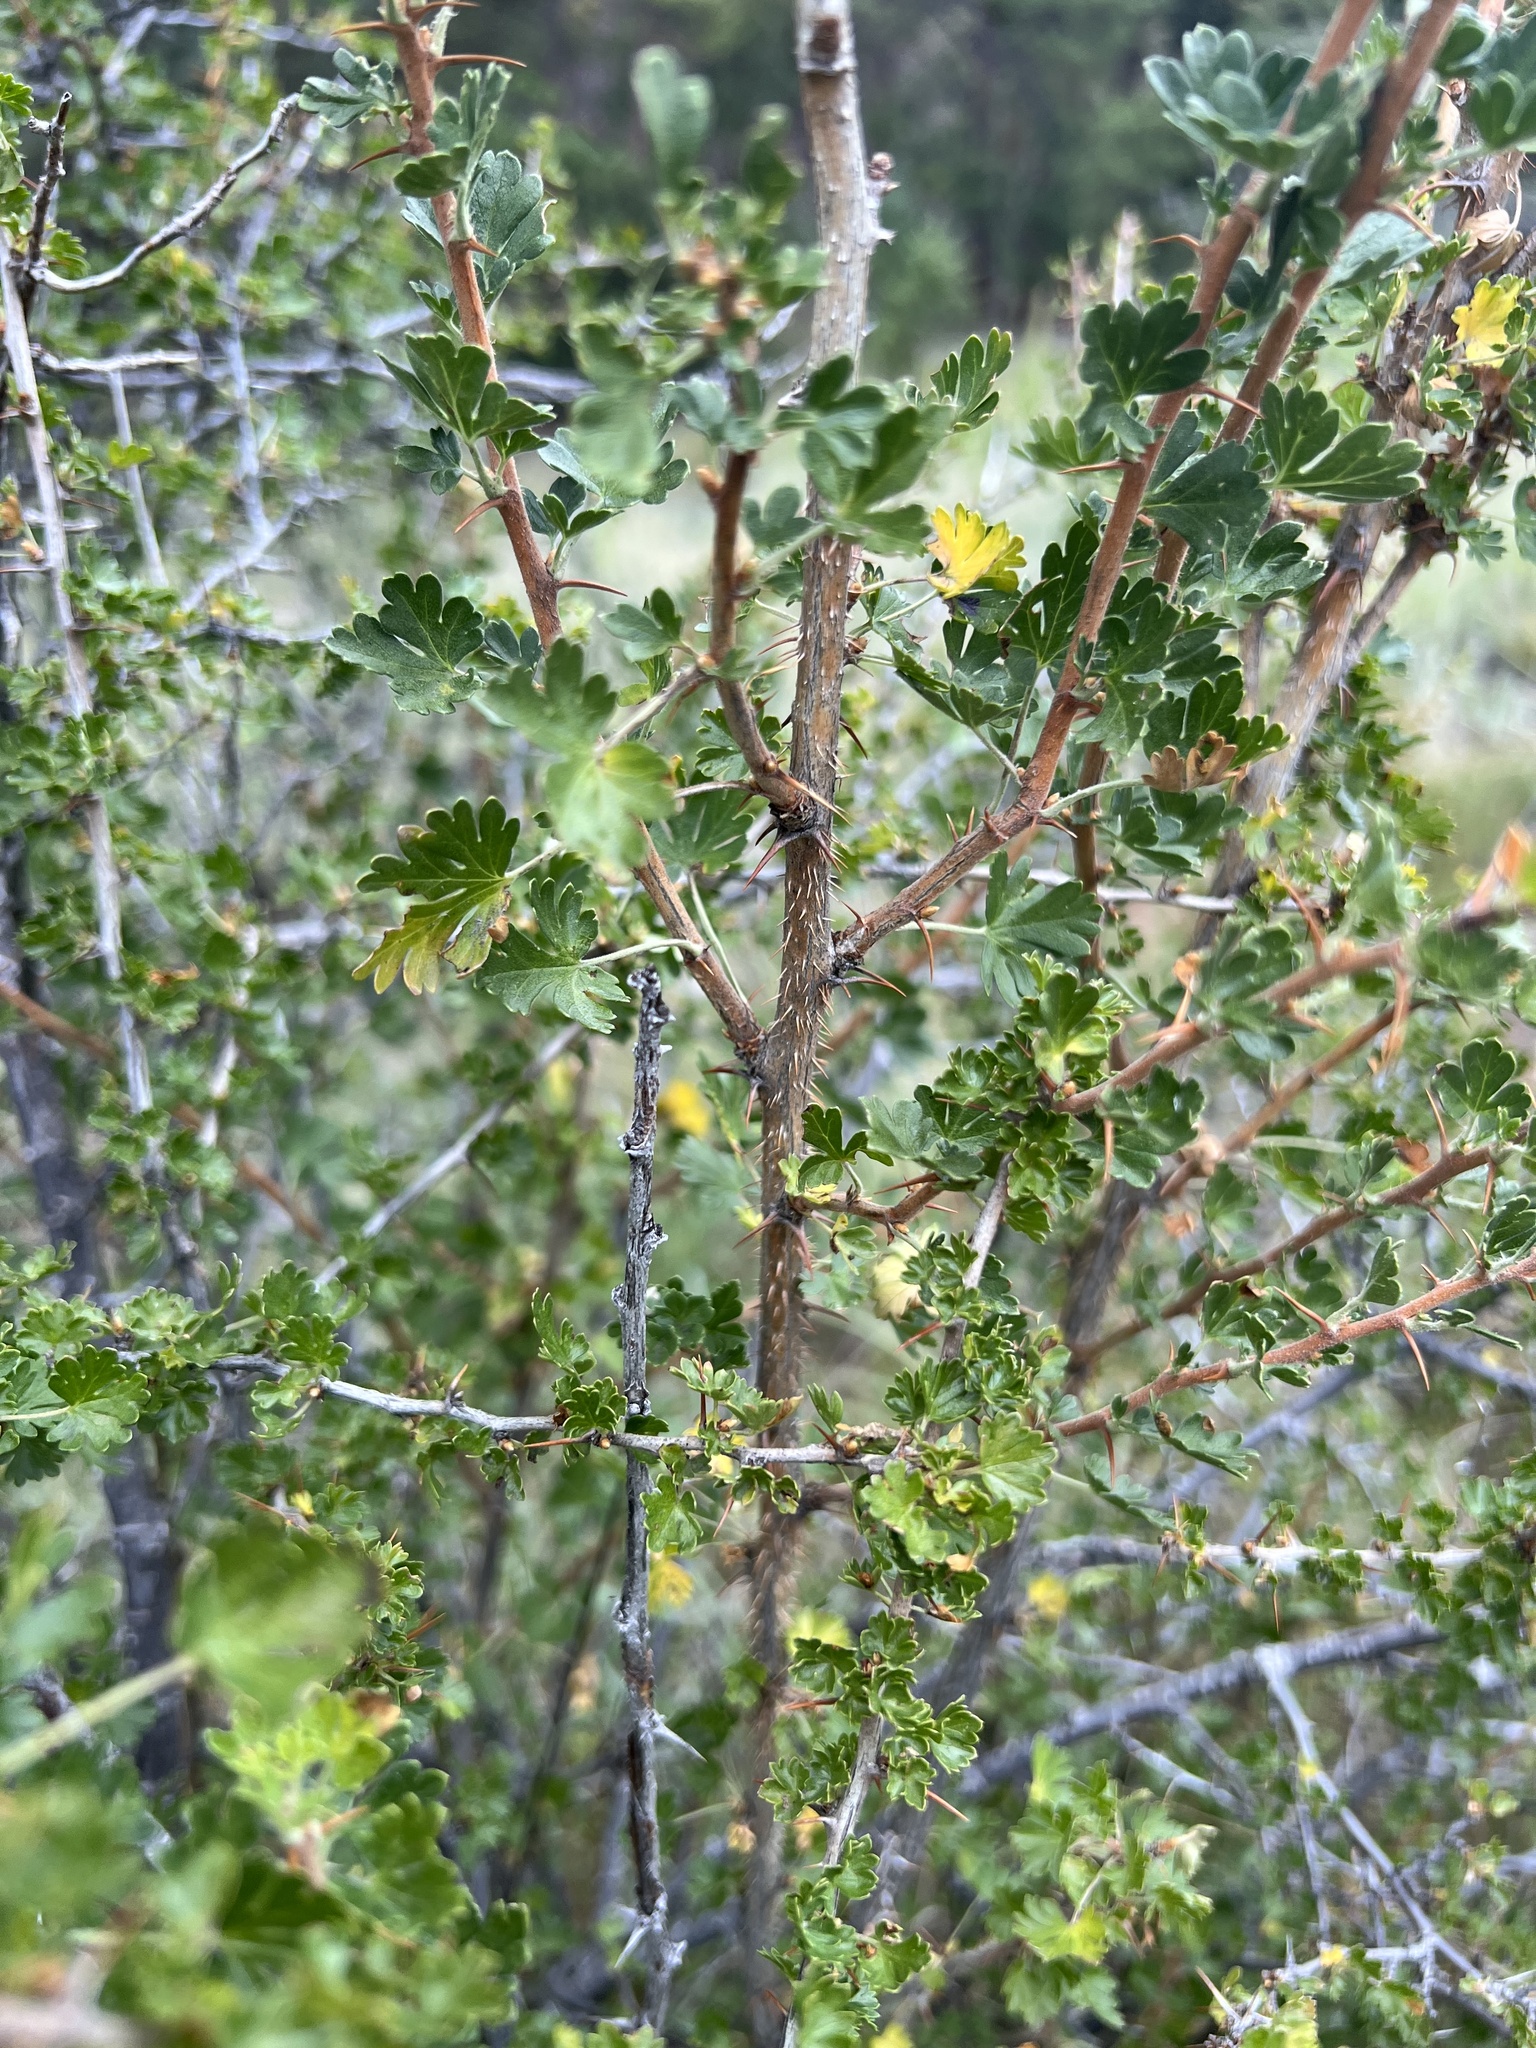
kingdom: Plantae
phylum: Tracheophyta
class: Magnoliopsida
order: Saxifragales
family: Grossulariaceae
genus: Ribes
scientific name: Ribes leptanthum
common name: Trumpet gooseberry
